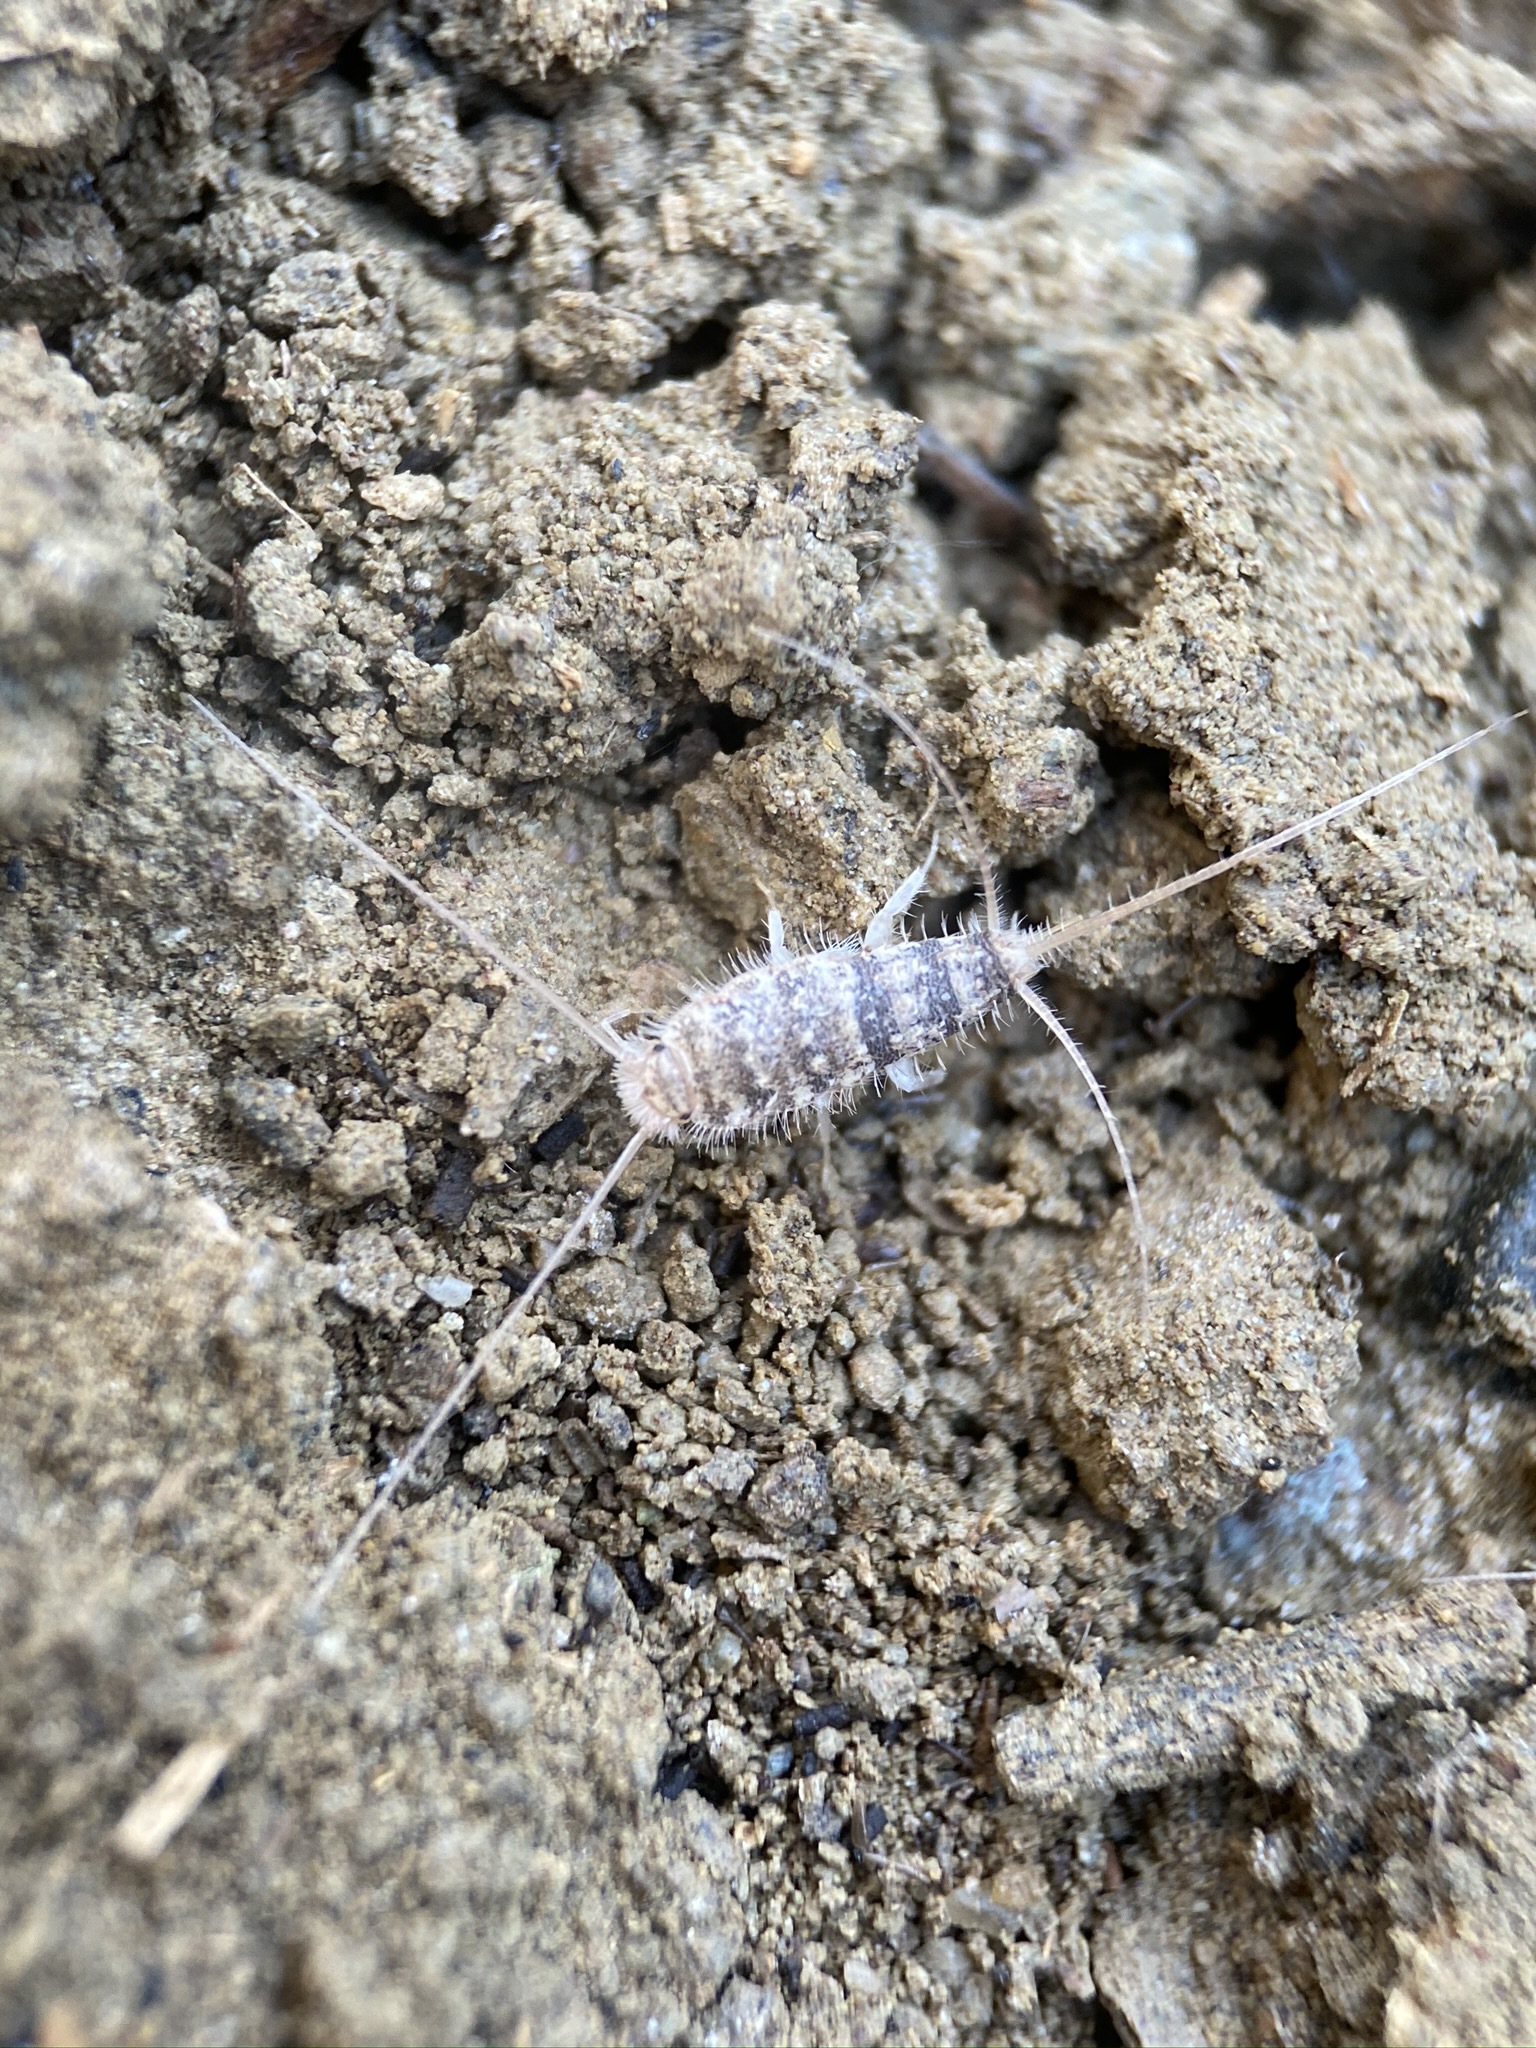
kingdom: Animalia
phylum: Arthropoda
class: Insecta
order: Zygentoma
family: Lepismatidae
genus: Thermobia
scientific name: Thermobia domestica
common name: Firebrat
